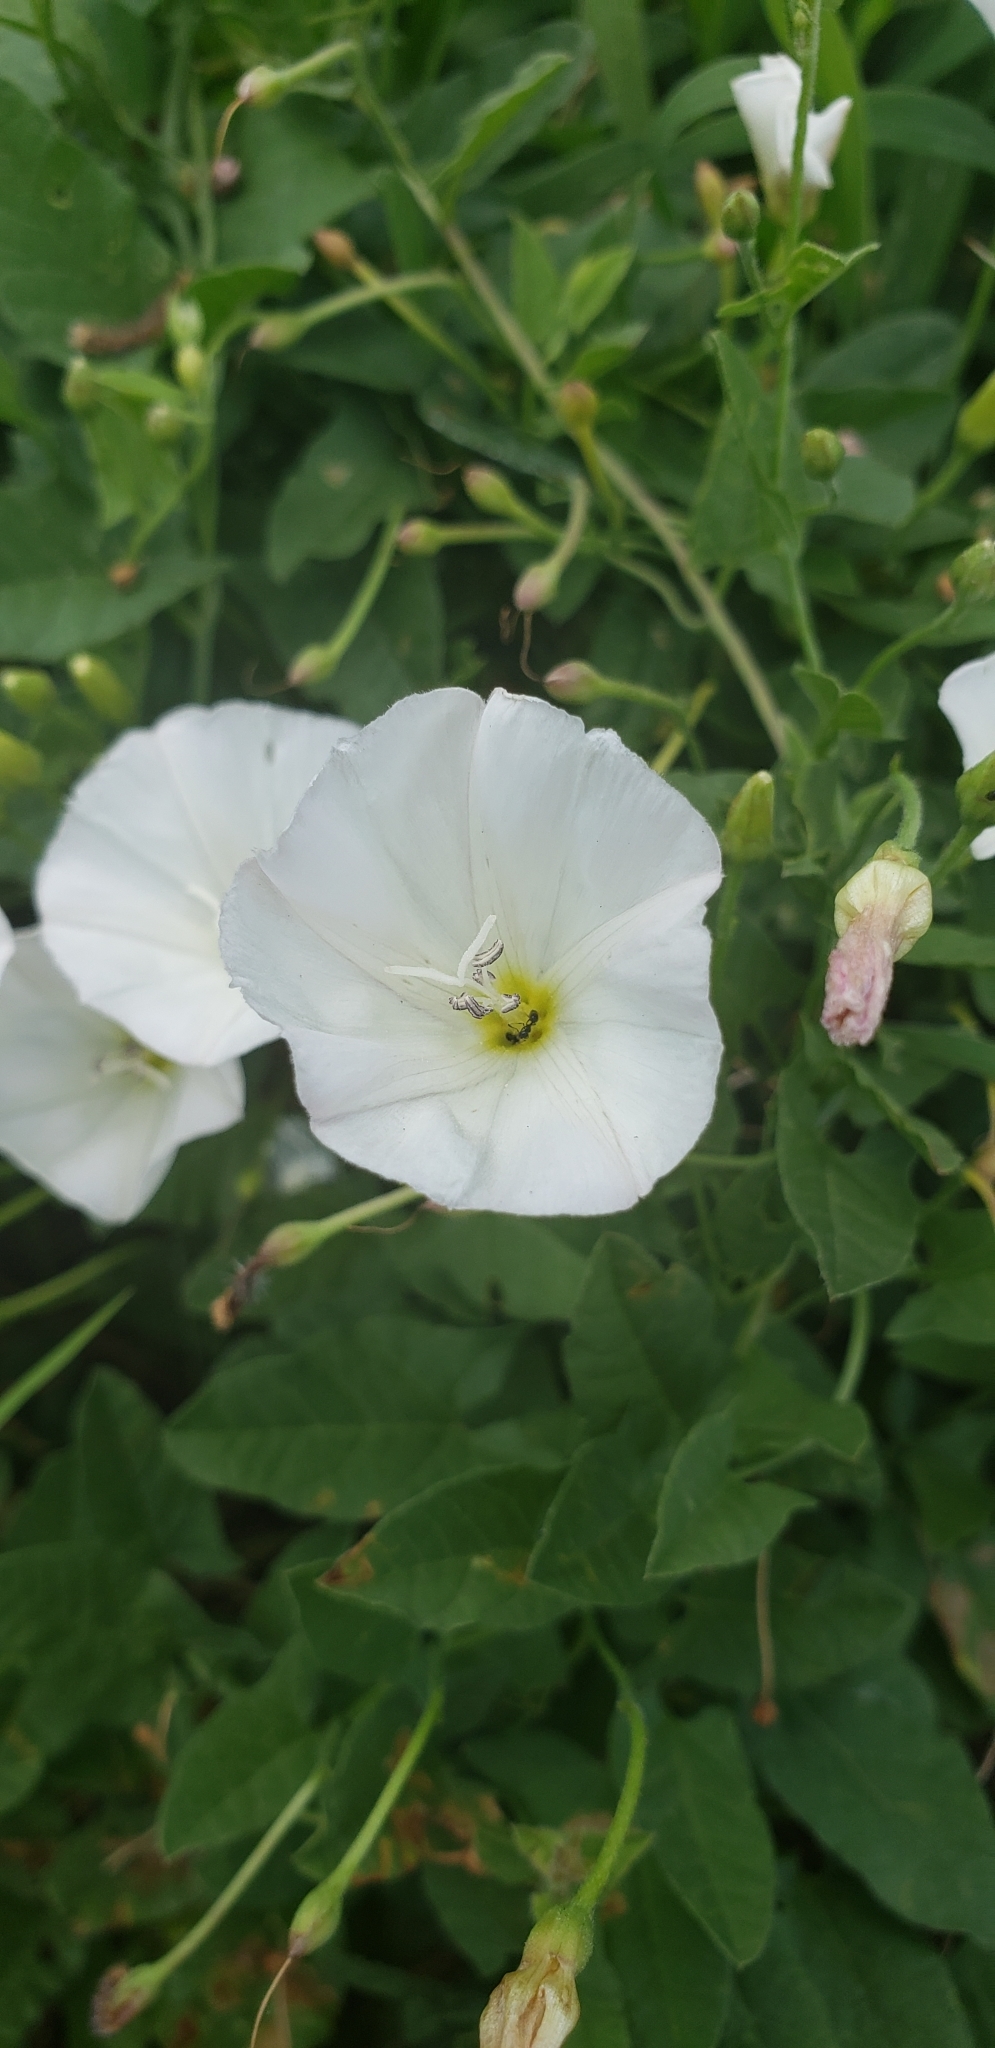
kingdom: Plantae
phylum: Tracheophyta
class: Magnoliopsida
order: Solanales
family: Convolvulaceae
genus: Convolvulus
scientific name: Convolvulus arvensis
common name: Field bindweed
